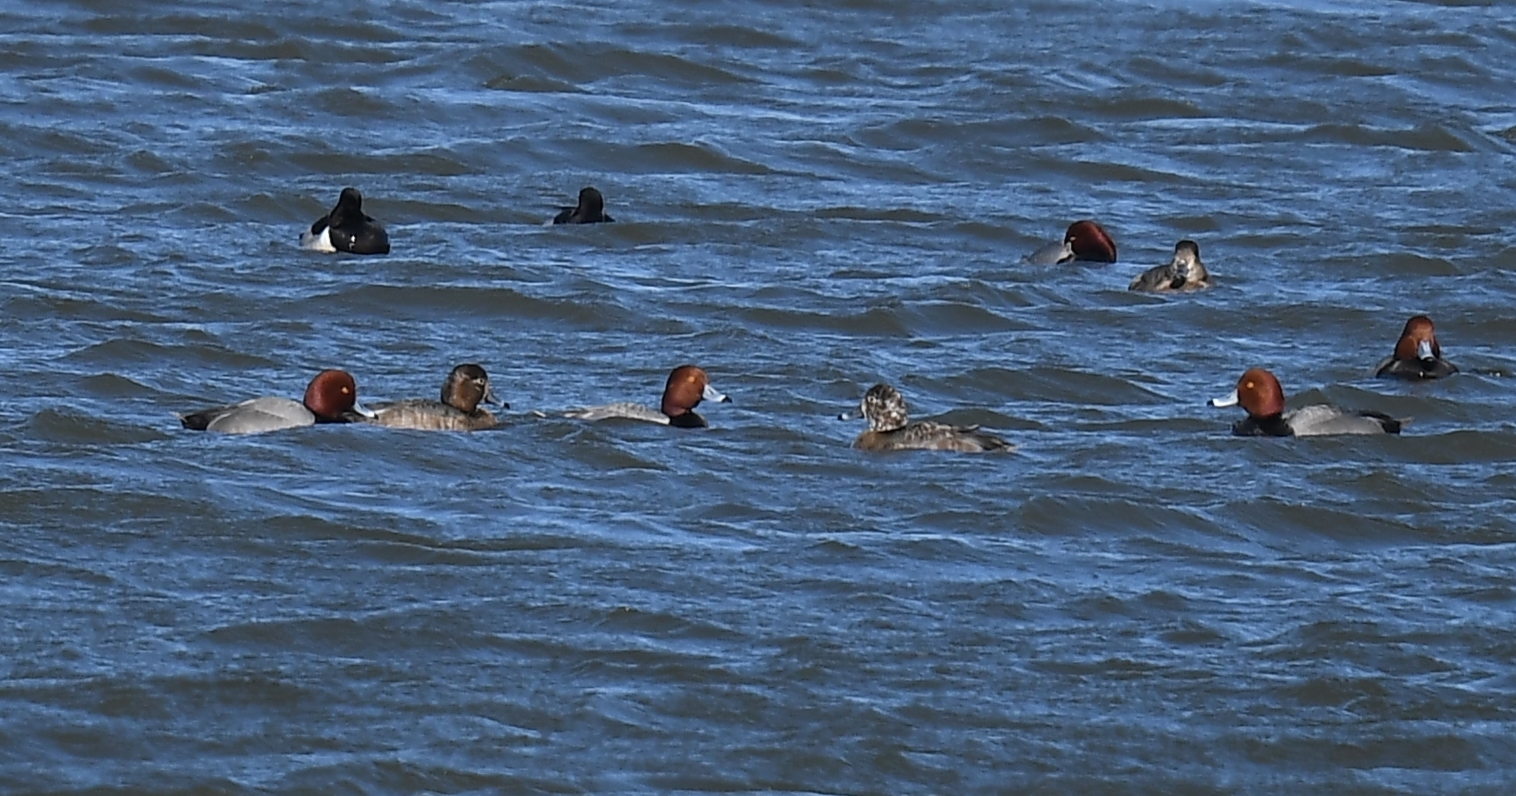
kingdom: Animalia
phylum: Chordata
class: Aves
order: Anseriformes
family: Anatidae
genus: Aythya
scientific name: Aythya americana
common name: Redhead
